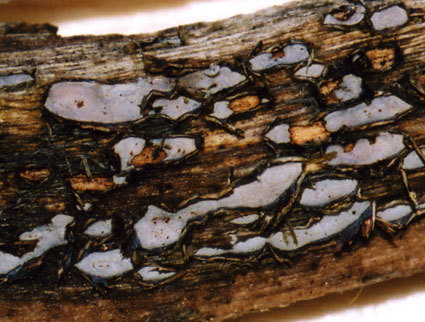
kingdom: Fungi
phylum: Ascomycota
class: Leotiomycetes
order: Chaetomellales
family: Marthamycetaceae
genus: Propolis
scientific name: Propolis farinosa
